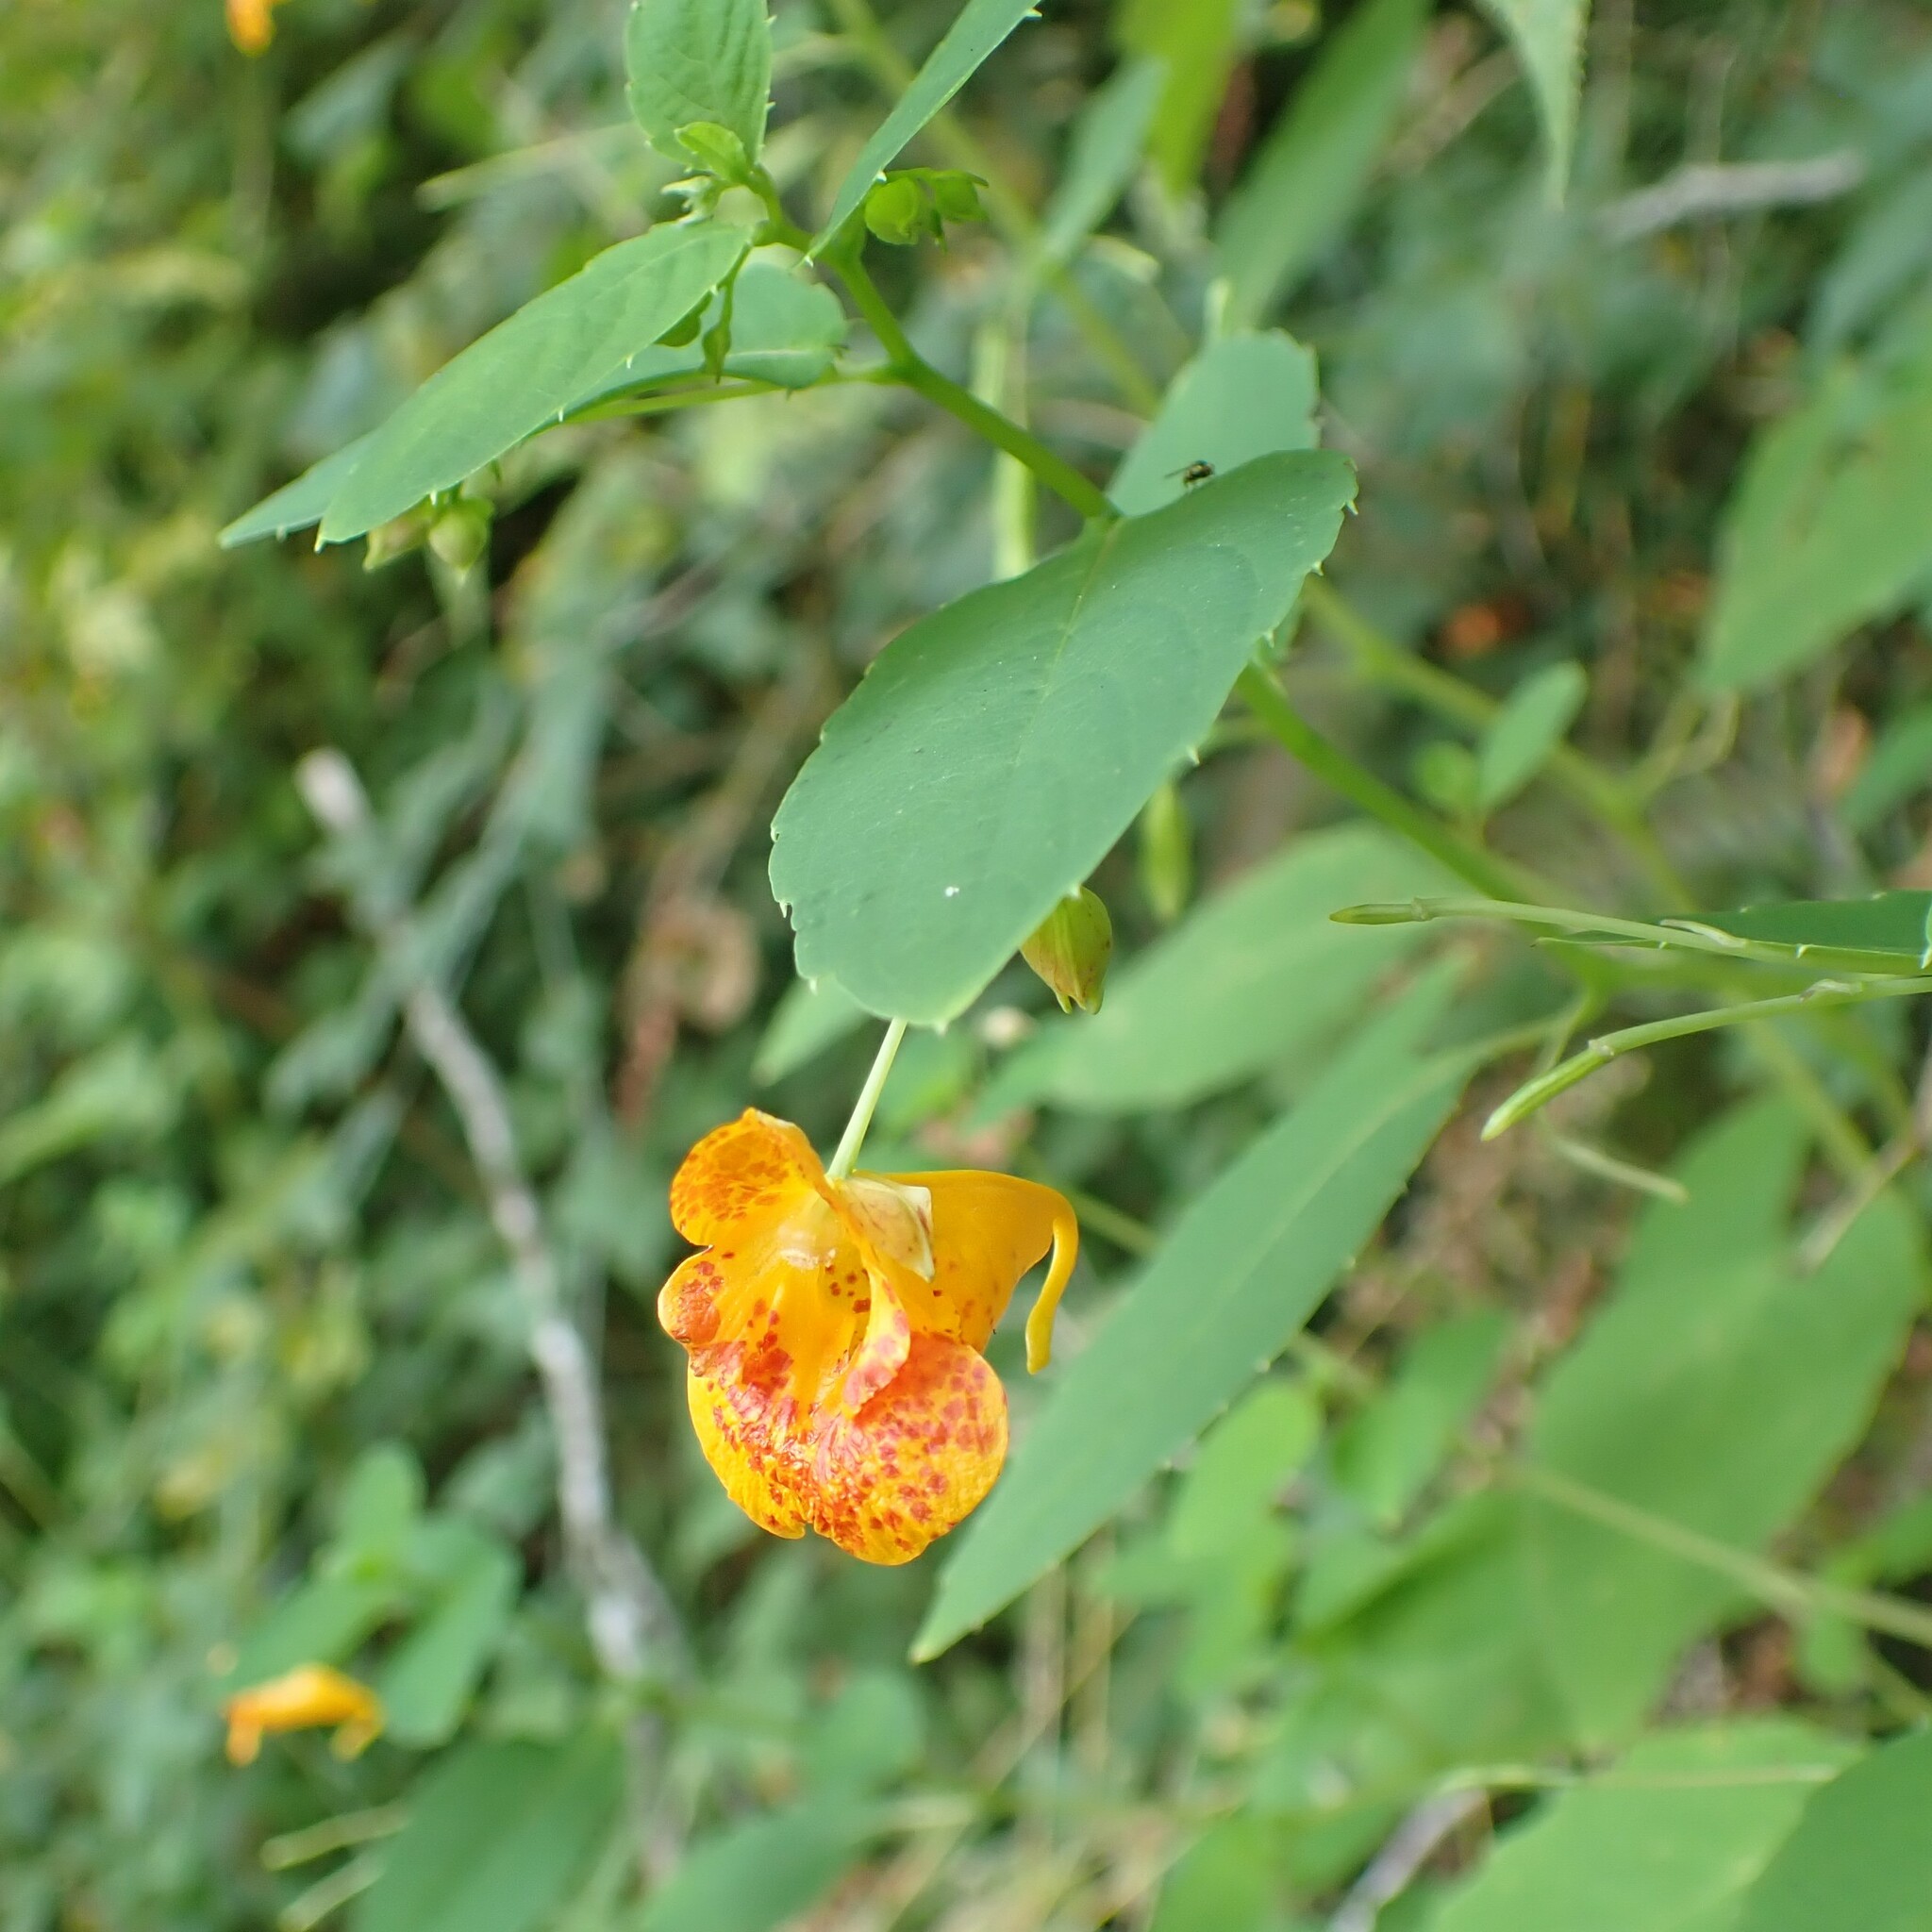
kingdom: Plantae
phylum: Tracheophyta
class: Magnoliopsida
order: Ericales
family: Balsaminaceae
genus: Impatiens
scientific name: Impatiens capensis
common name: Orange balsam
